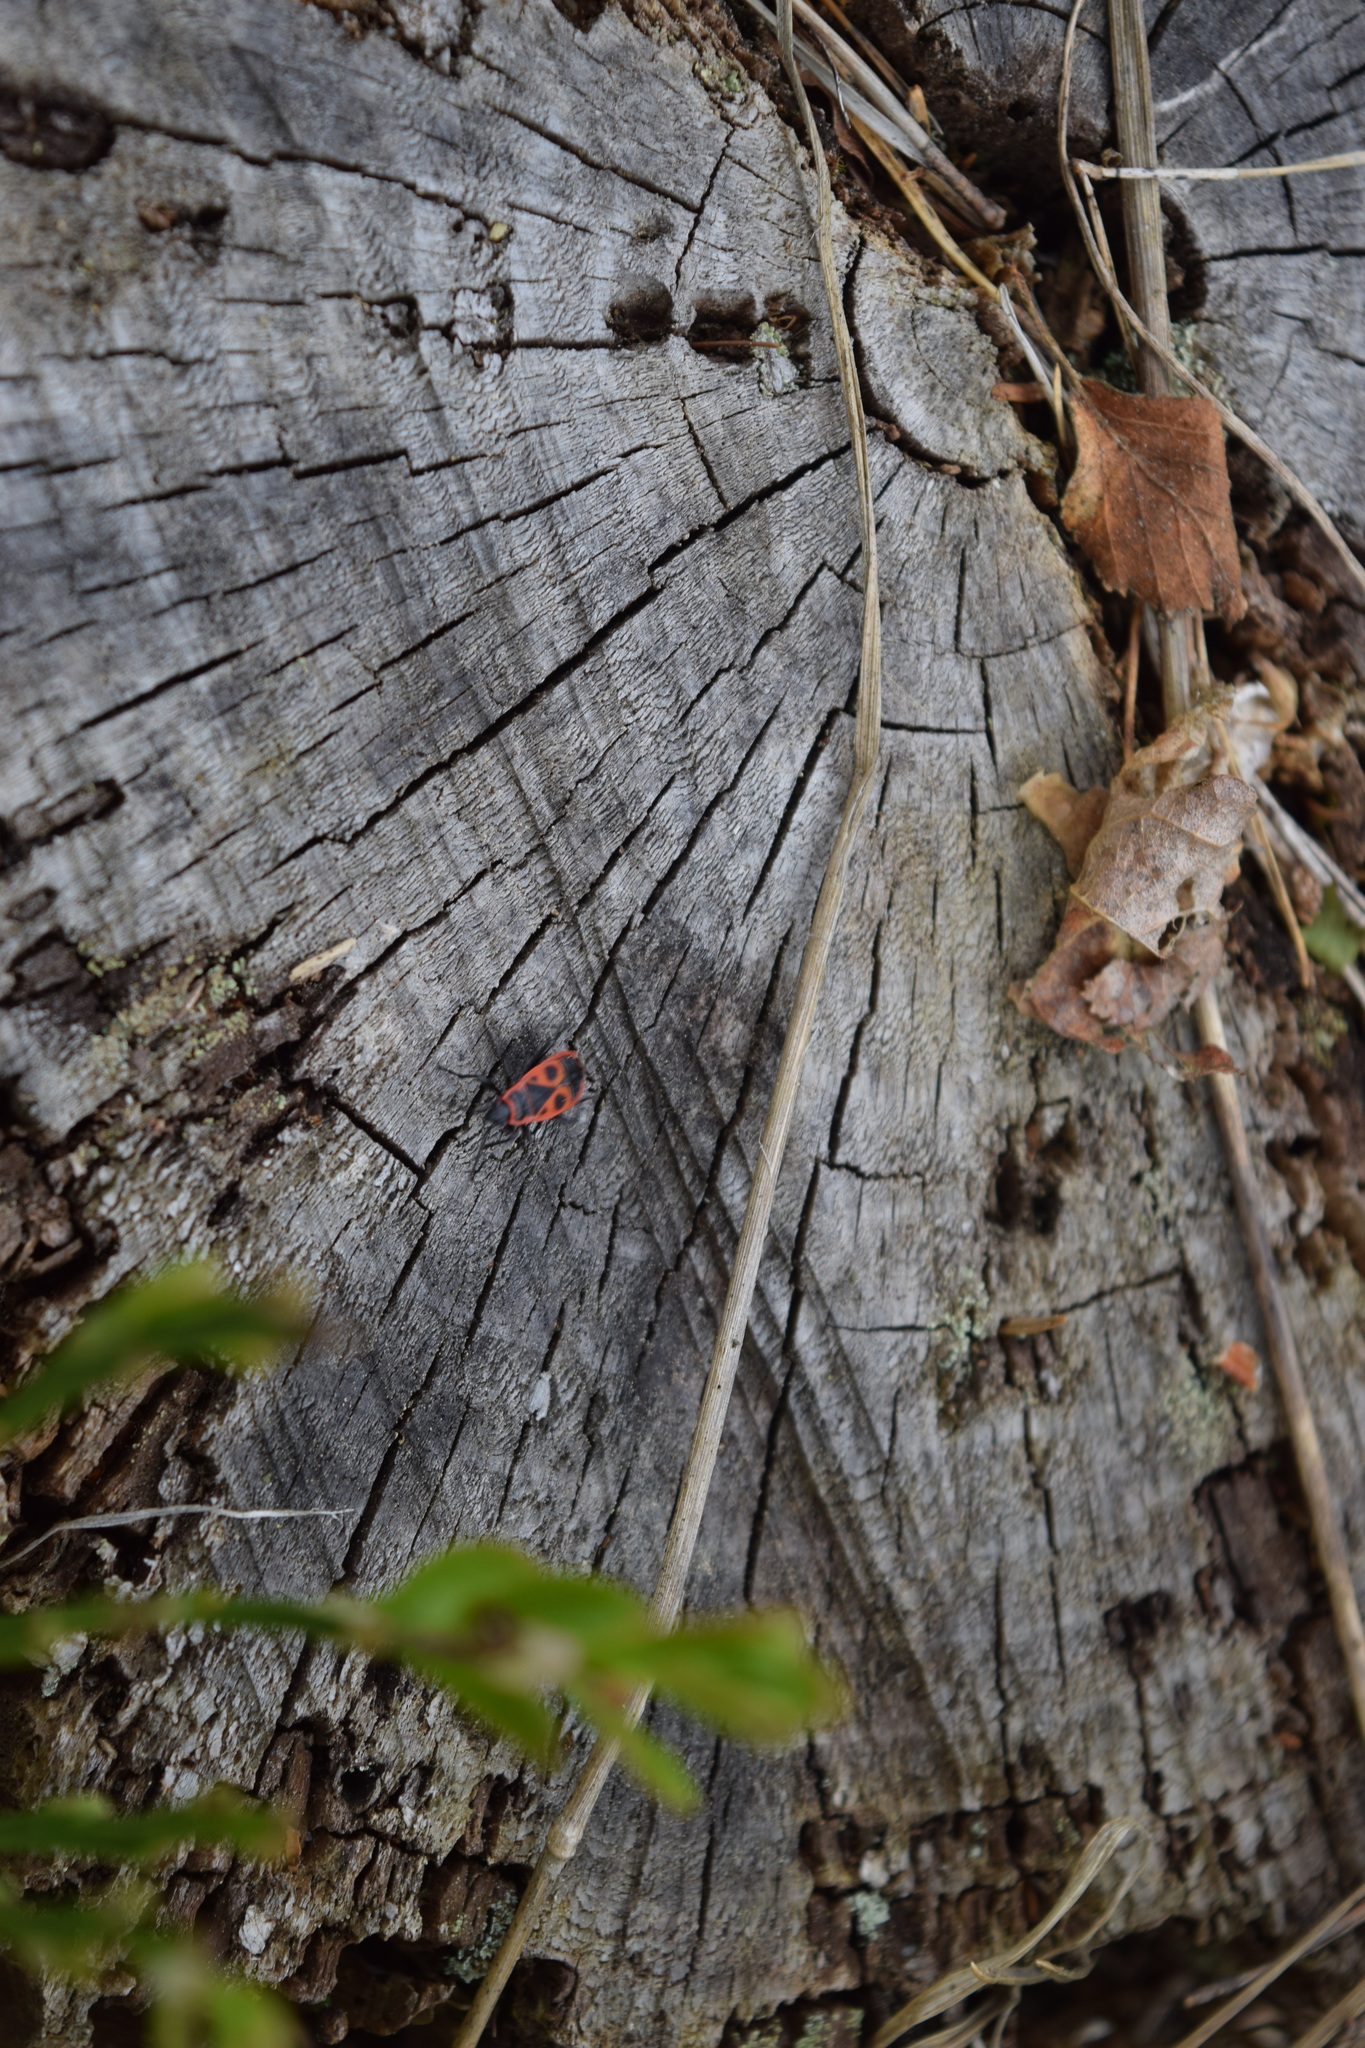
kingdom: Animalia
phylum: Arthropoda
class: Insecta
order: Hemiptera
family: Pyrrhocoridae
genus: Pyrrhocoris
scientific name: Pyrrhocoris apterus
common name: Firebug
